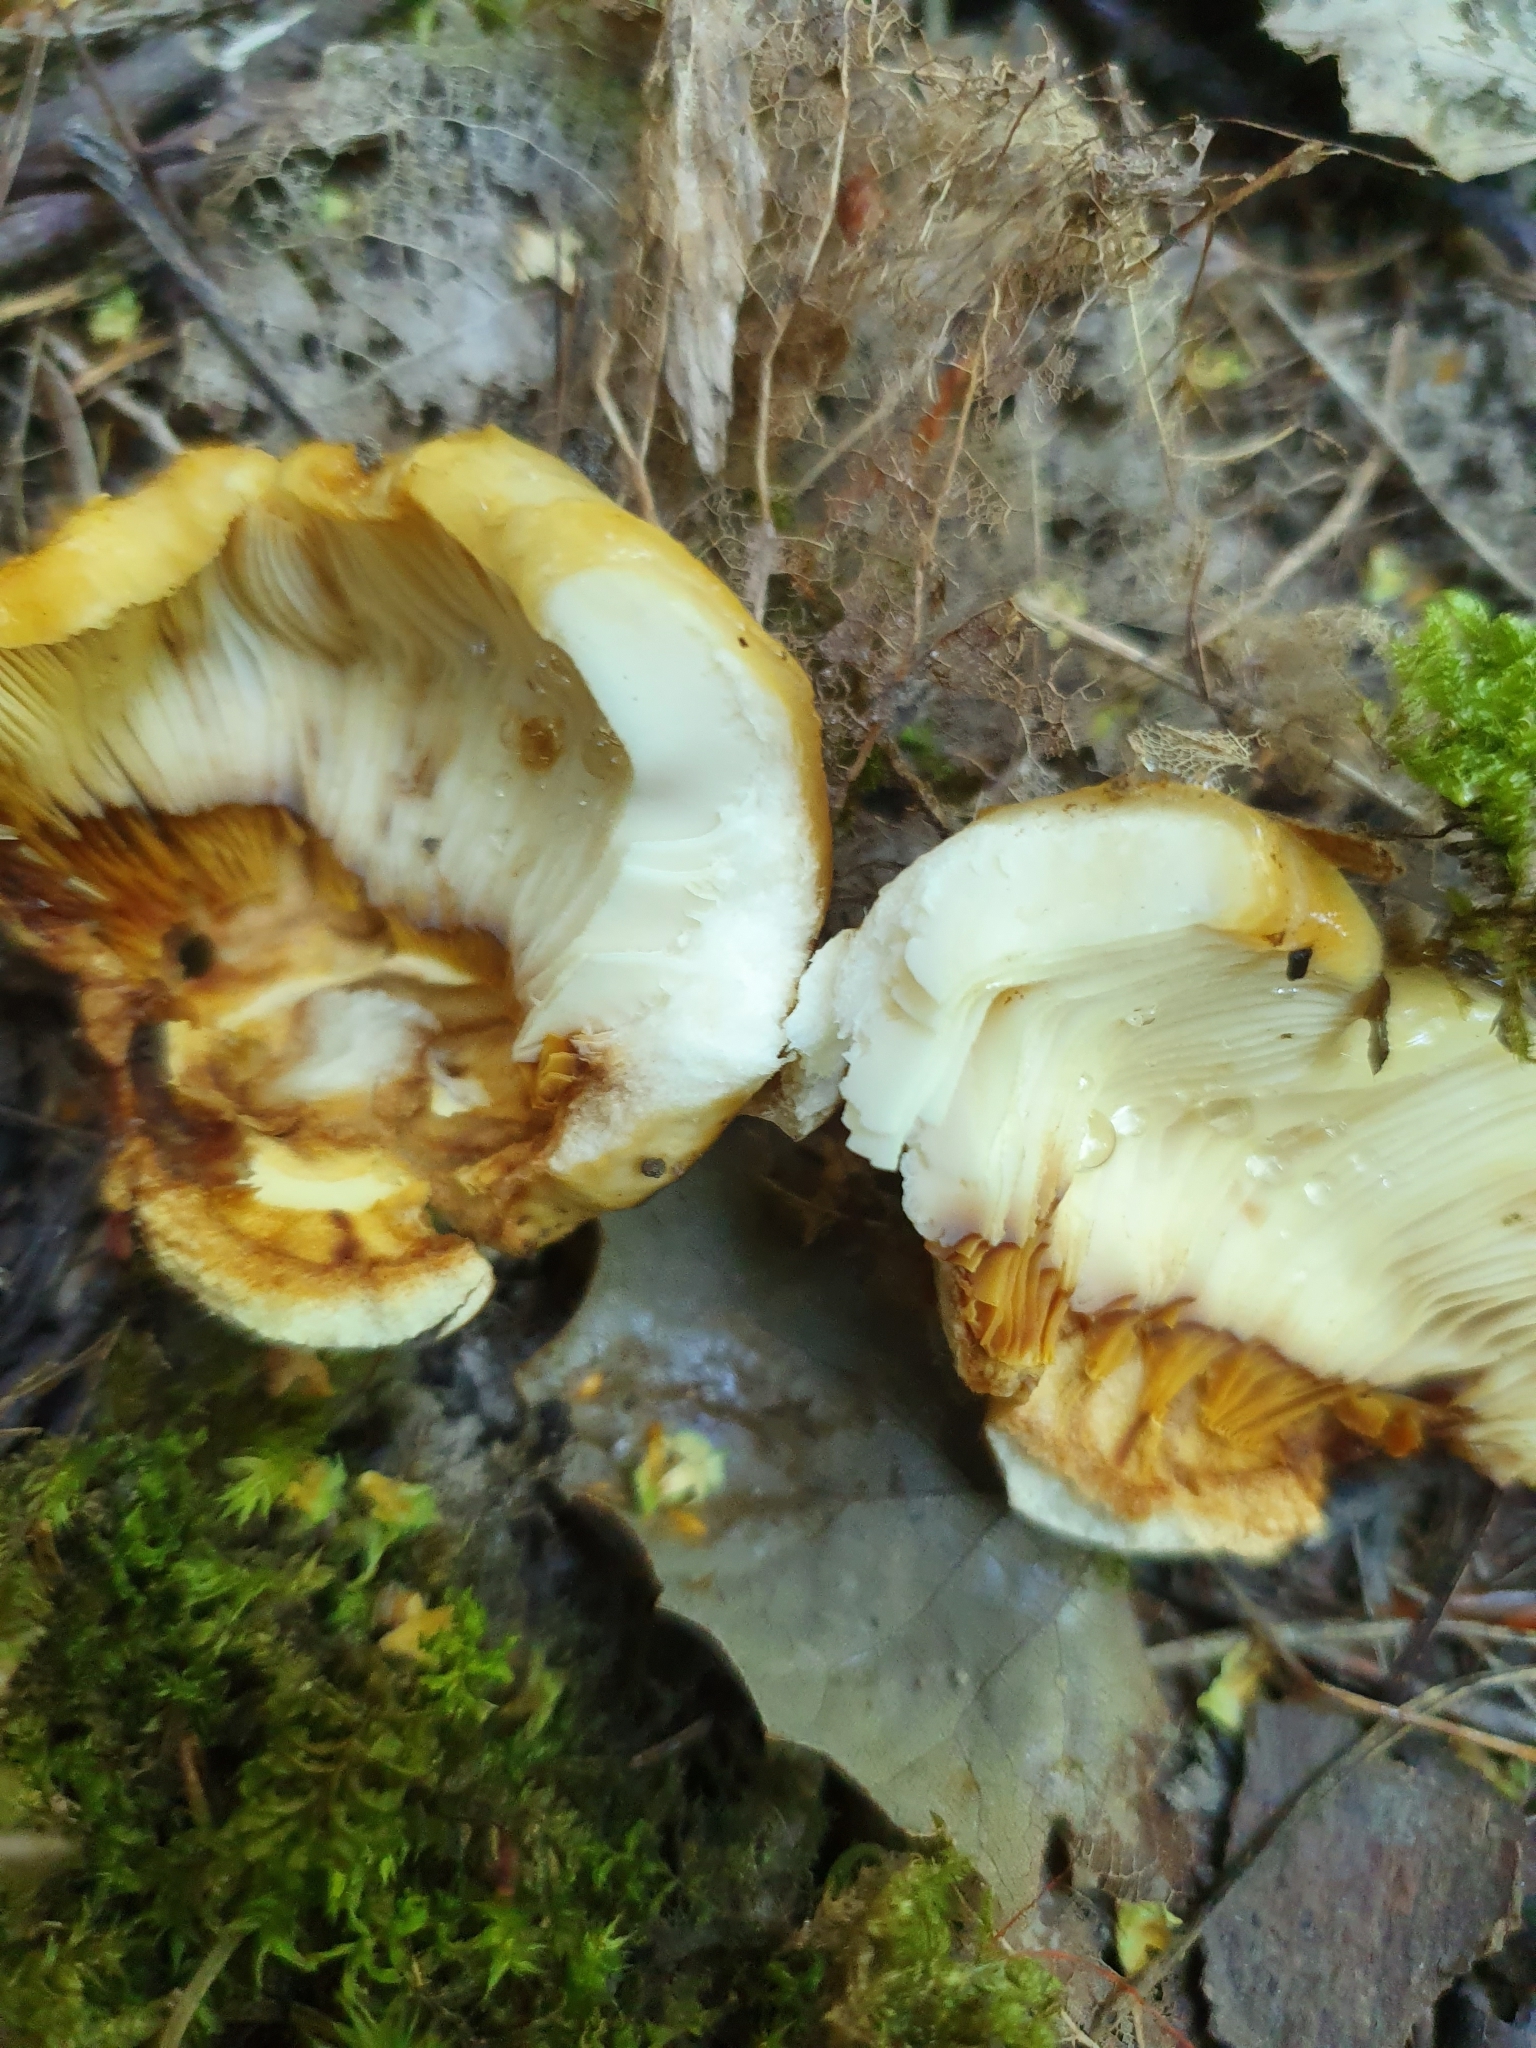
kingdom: Fungi
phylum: Basidiomycota
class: Agaricomycetes
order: Russulales
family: Russulaceae
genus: Russula
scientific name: Russula foetens
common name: Foetid russula
